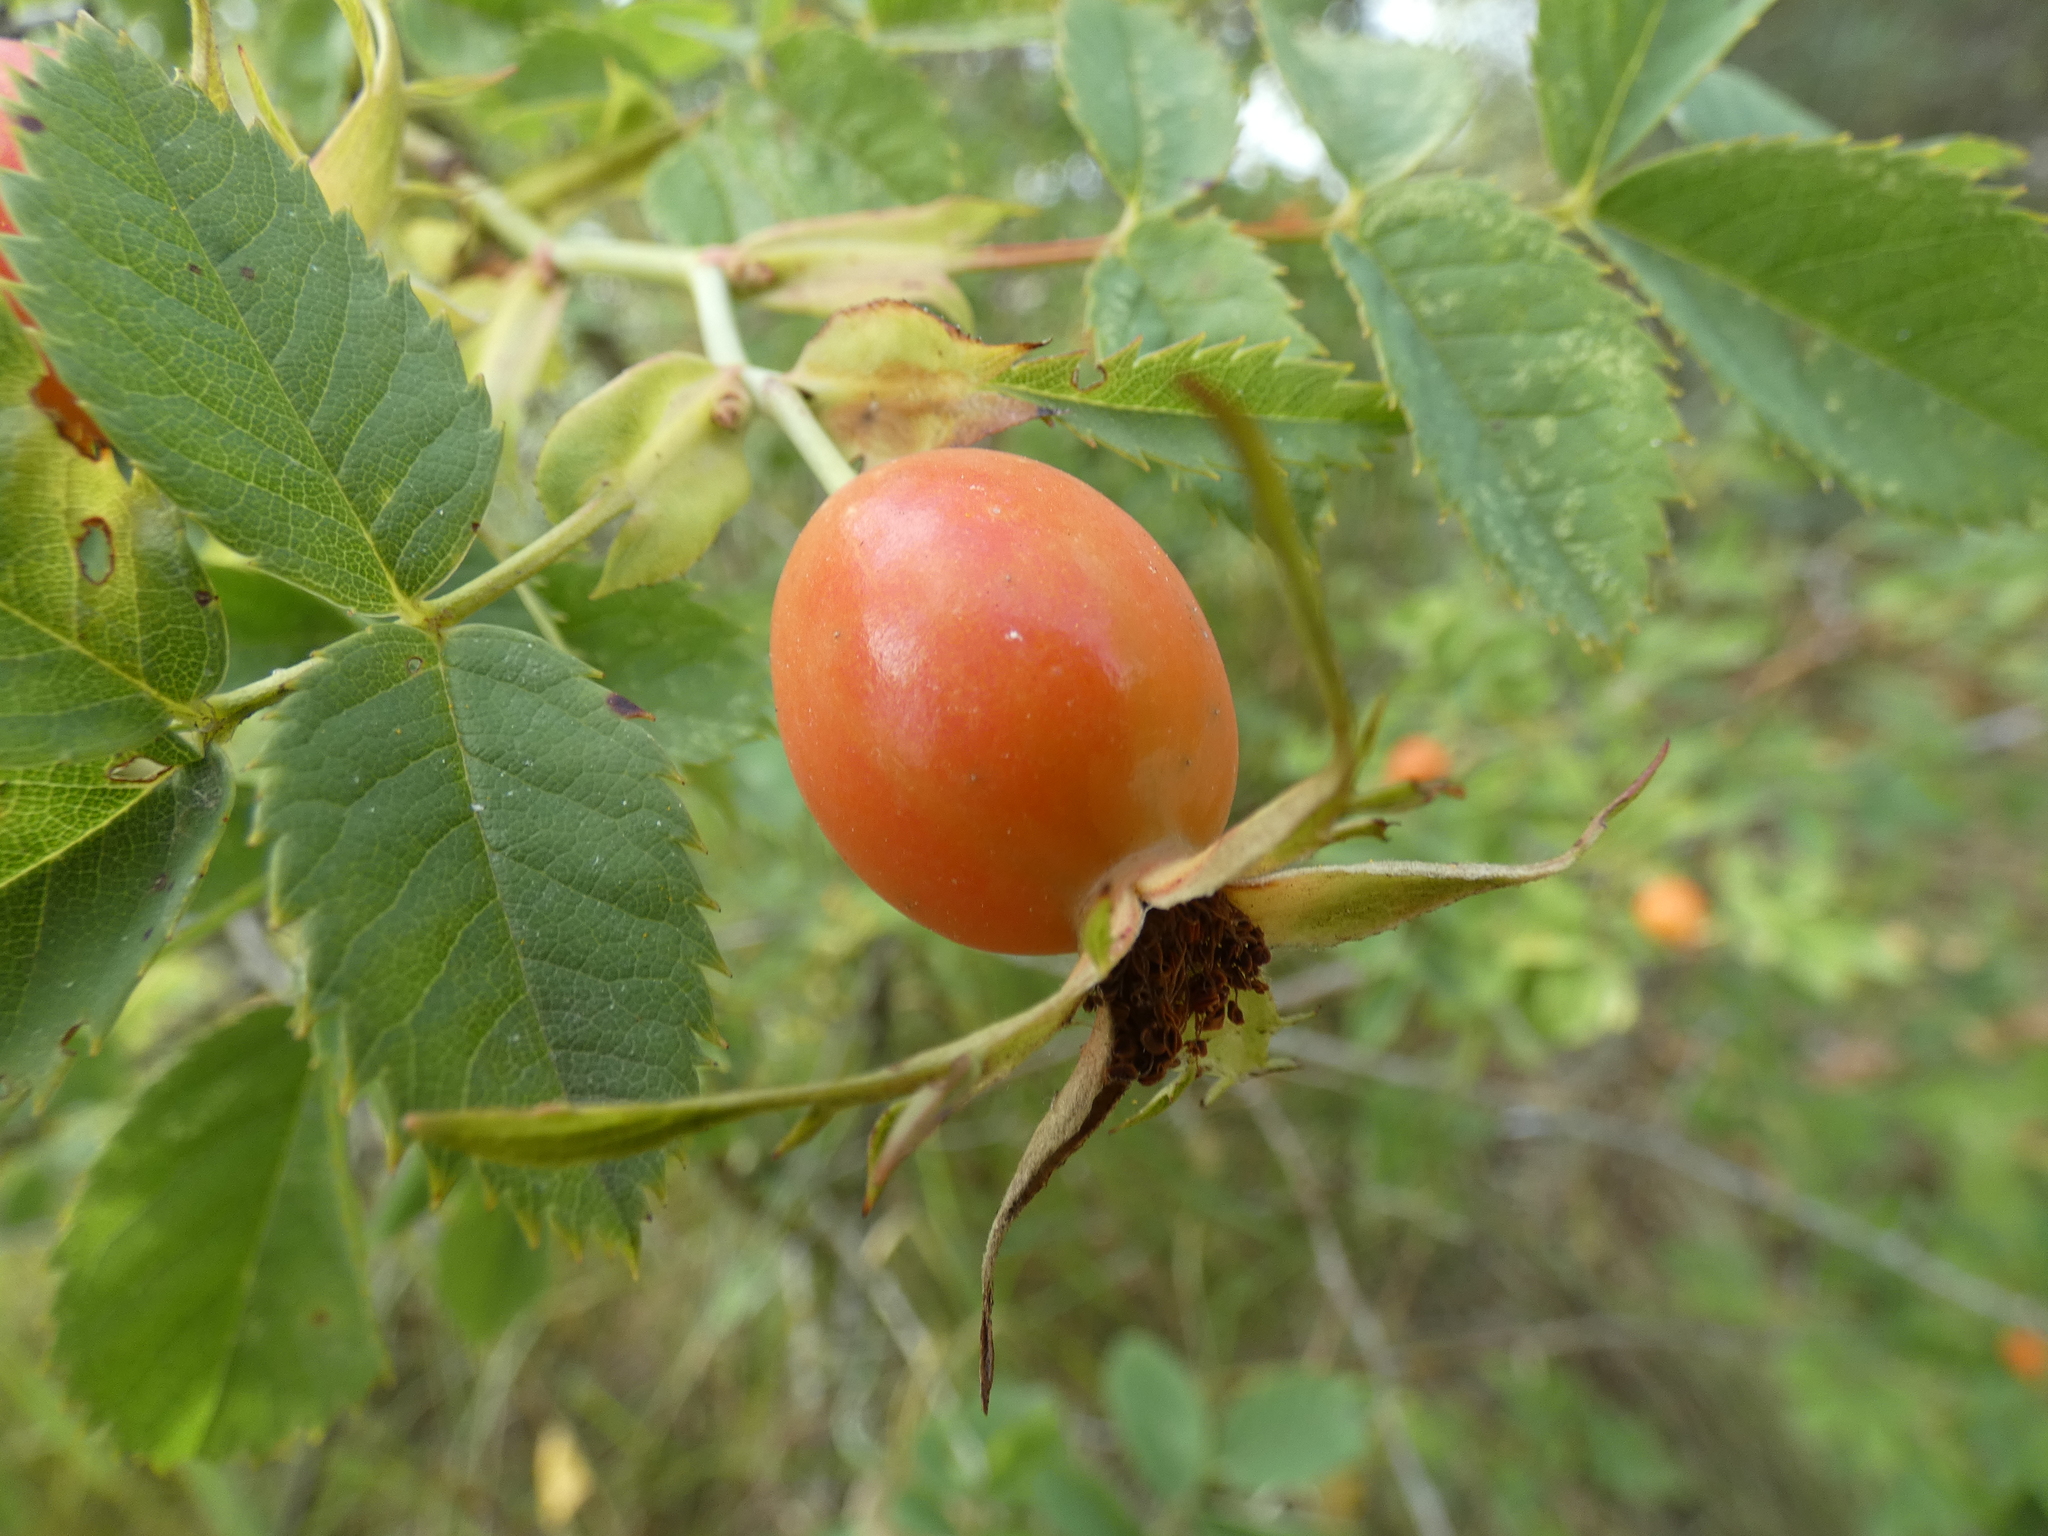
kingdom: Plantae
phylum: Tracheophyta
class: Magnoliopsida
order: Rosales
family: Rosaceae
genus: Rosa
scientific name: Rosa
